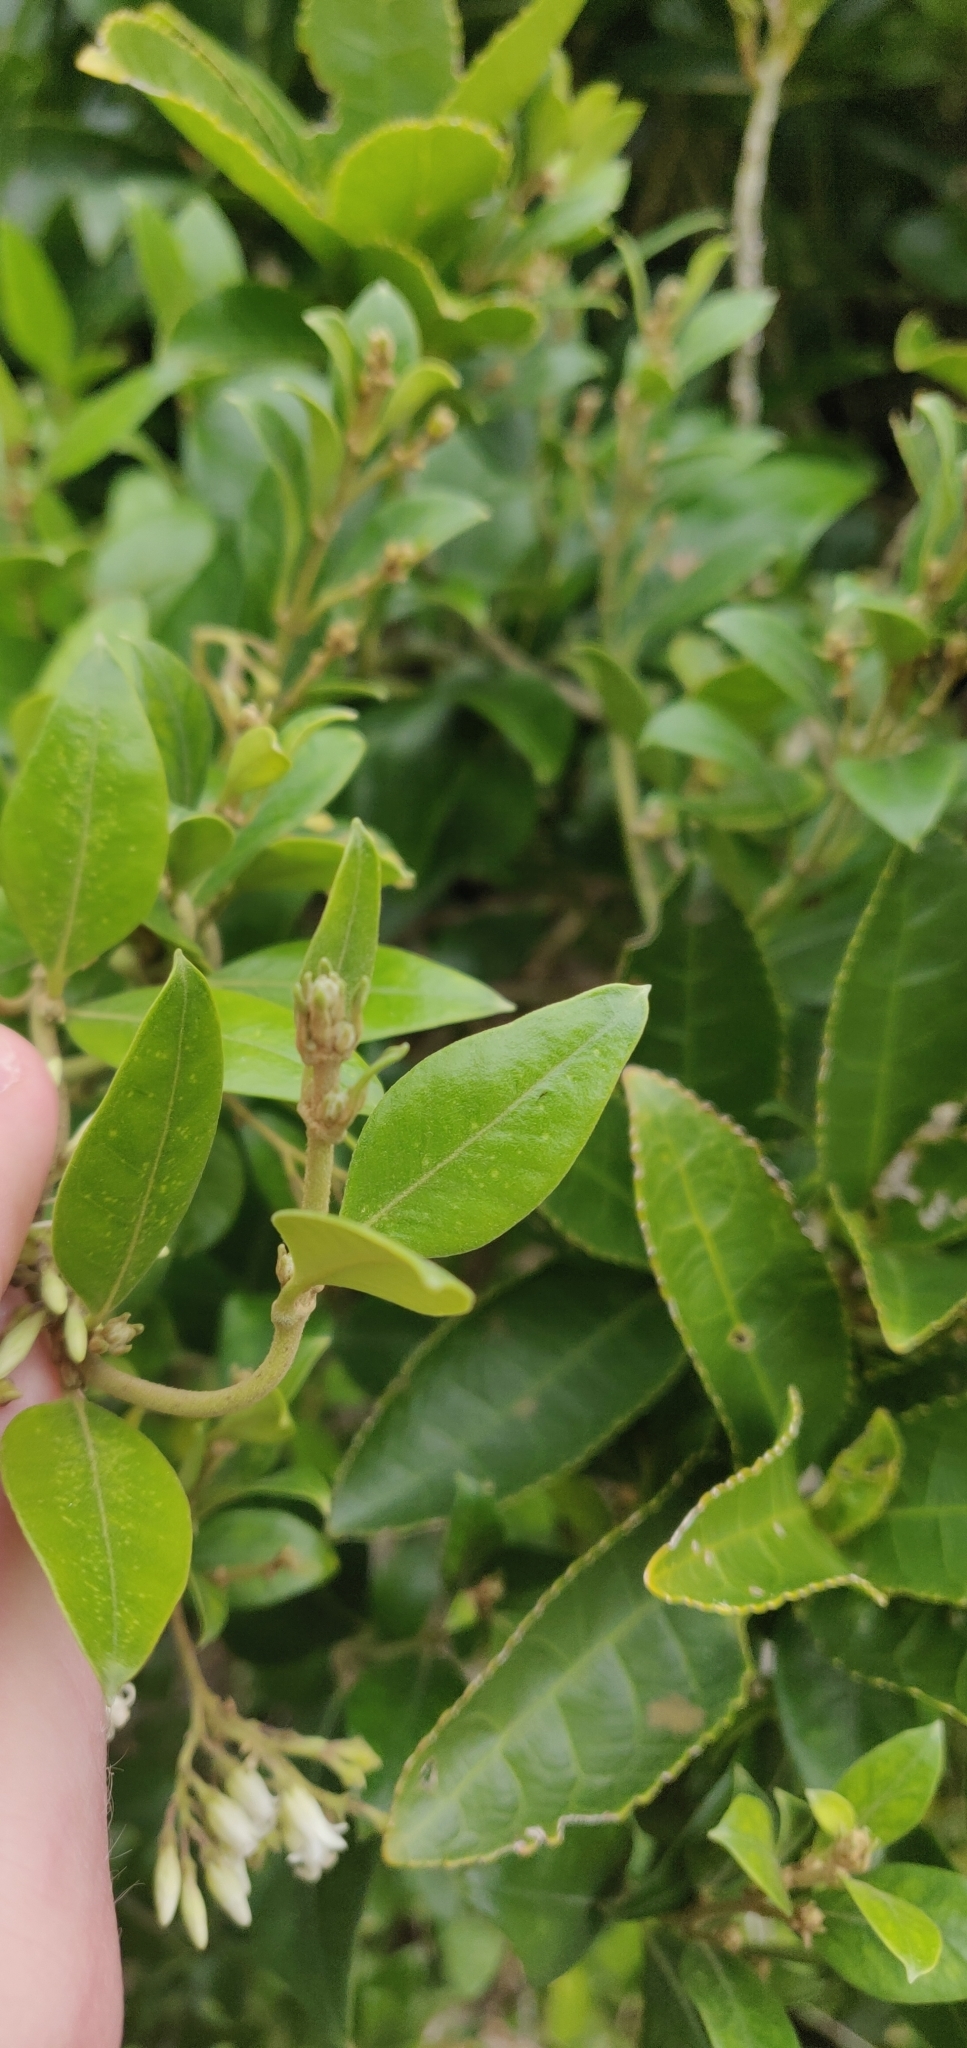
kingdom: Plantae
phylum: Tracheophyta
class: Magnoliopsida
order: Gentianales
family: Apocynaceae
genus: Parsonsia
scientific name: Parsonsia heterophylla
